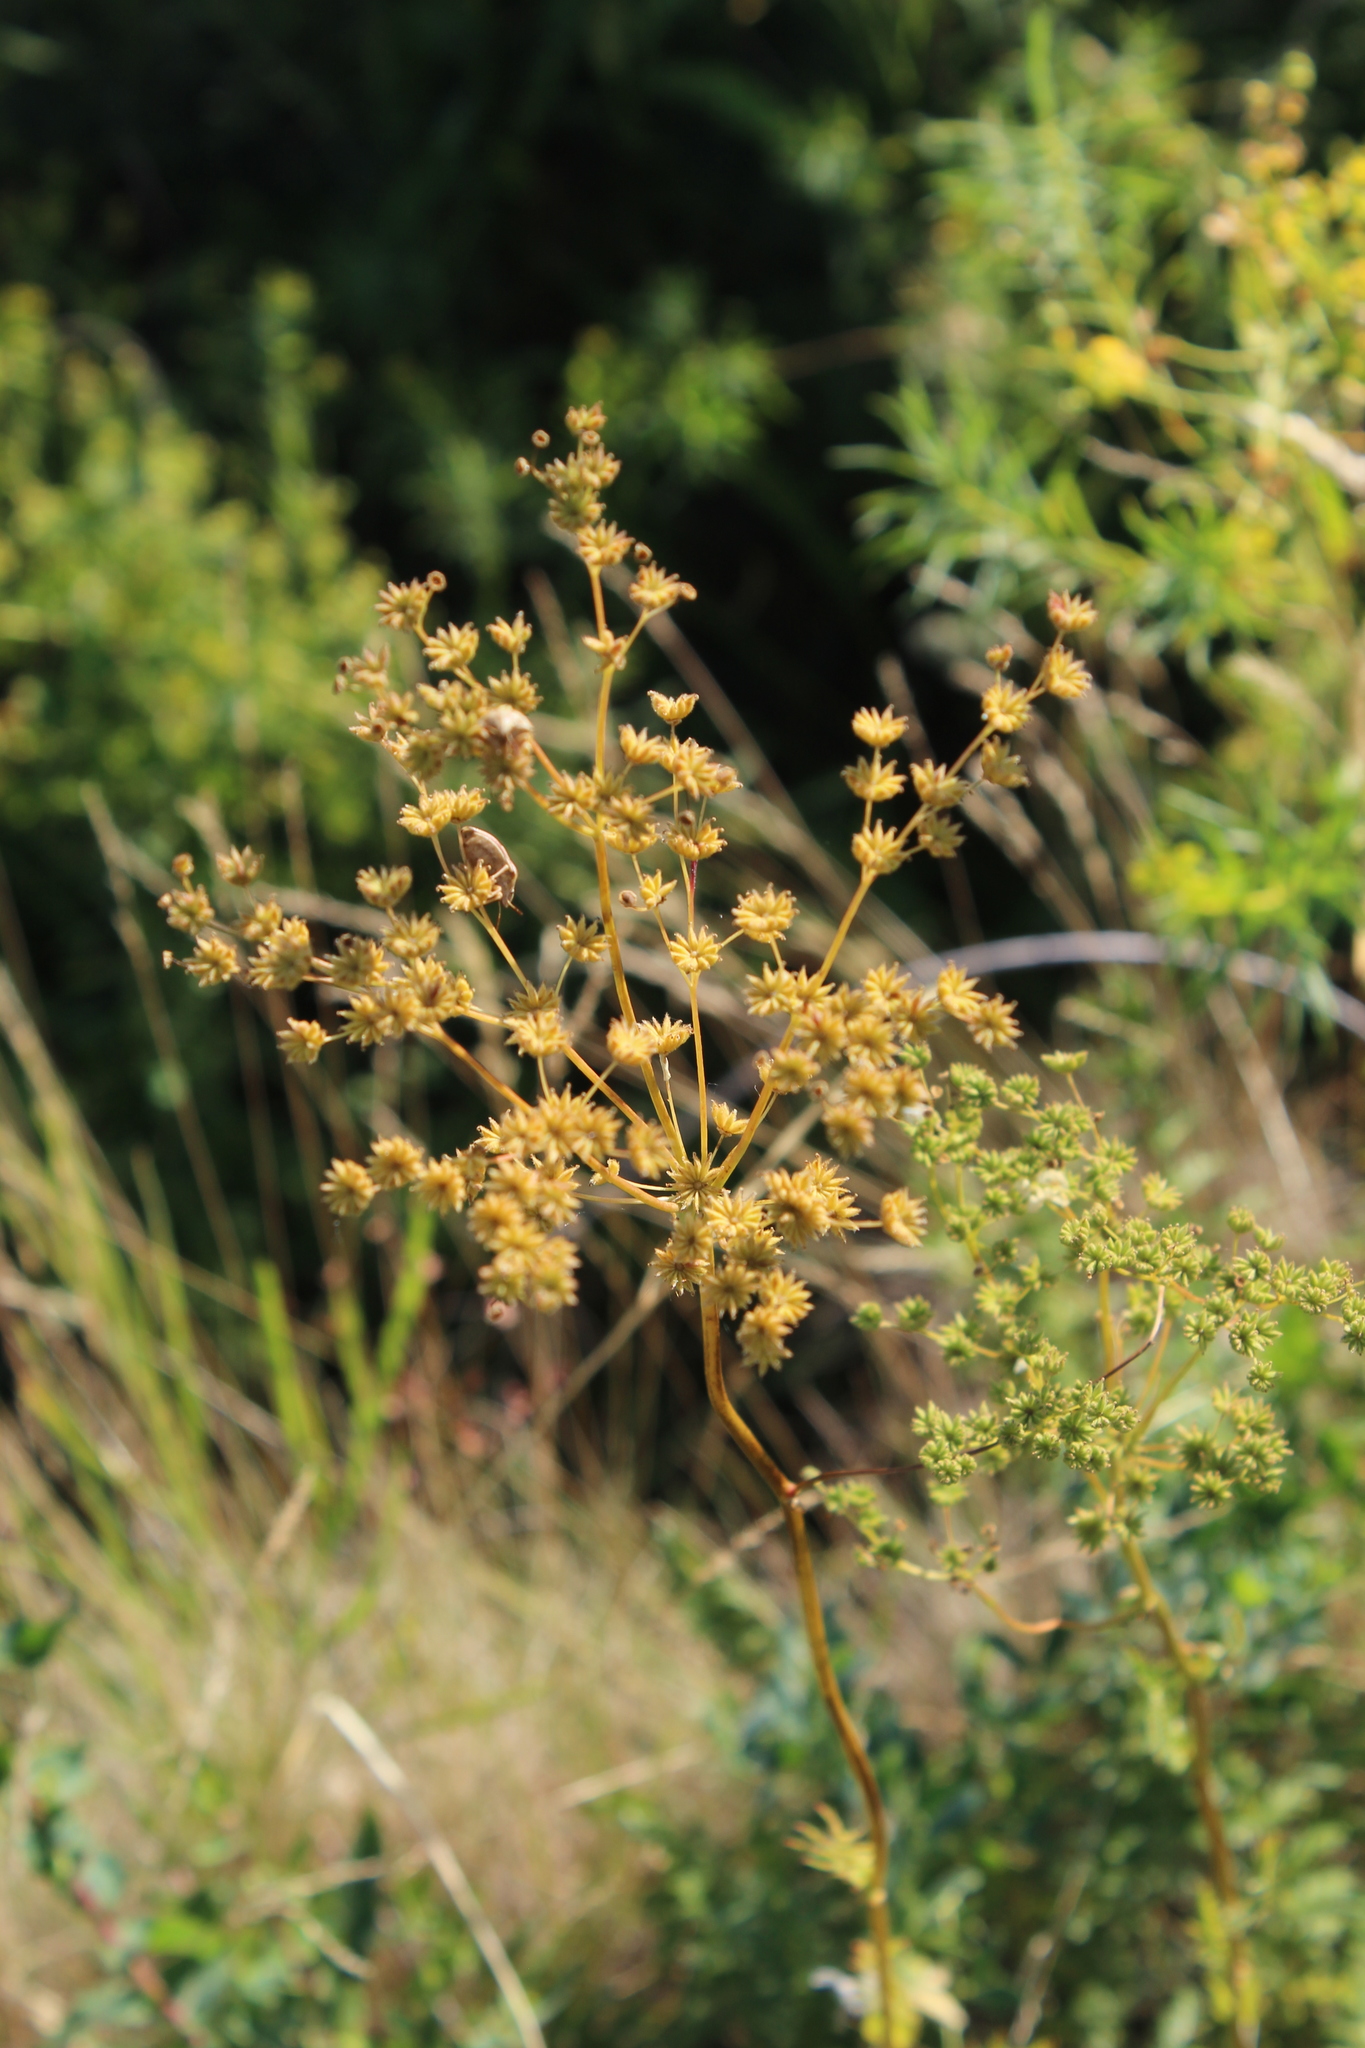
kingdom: Plantae
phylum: Tracheophyta
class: Magnoliopsida
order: Rosales
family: Rosaceae
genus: Filipendula
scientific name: Filipendula vulgaris
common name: Dropwort
